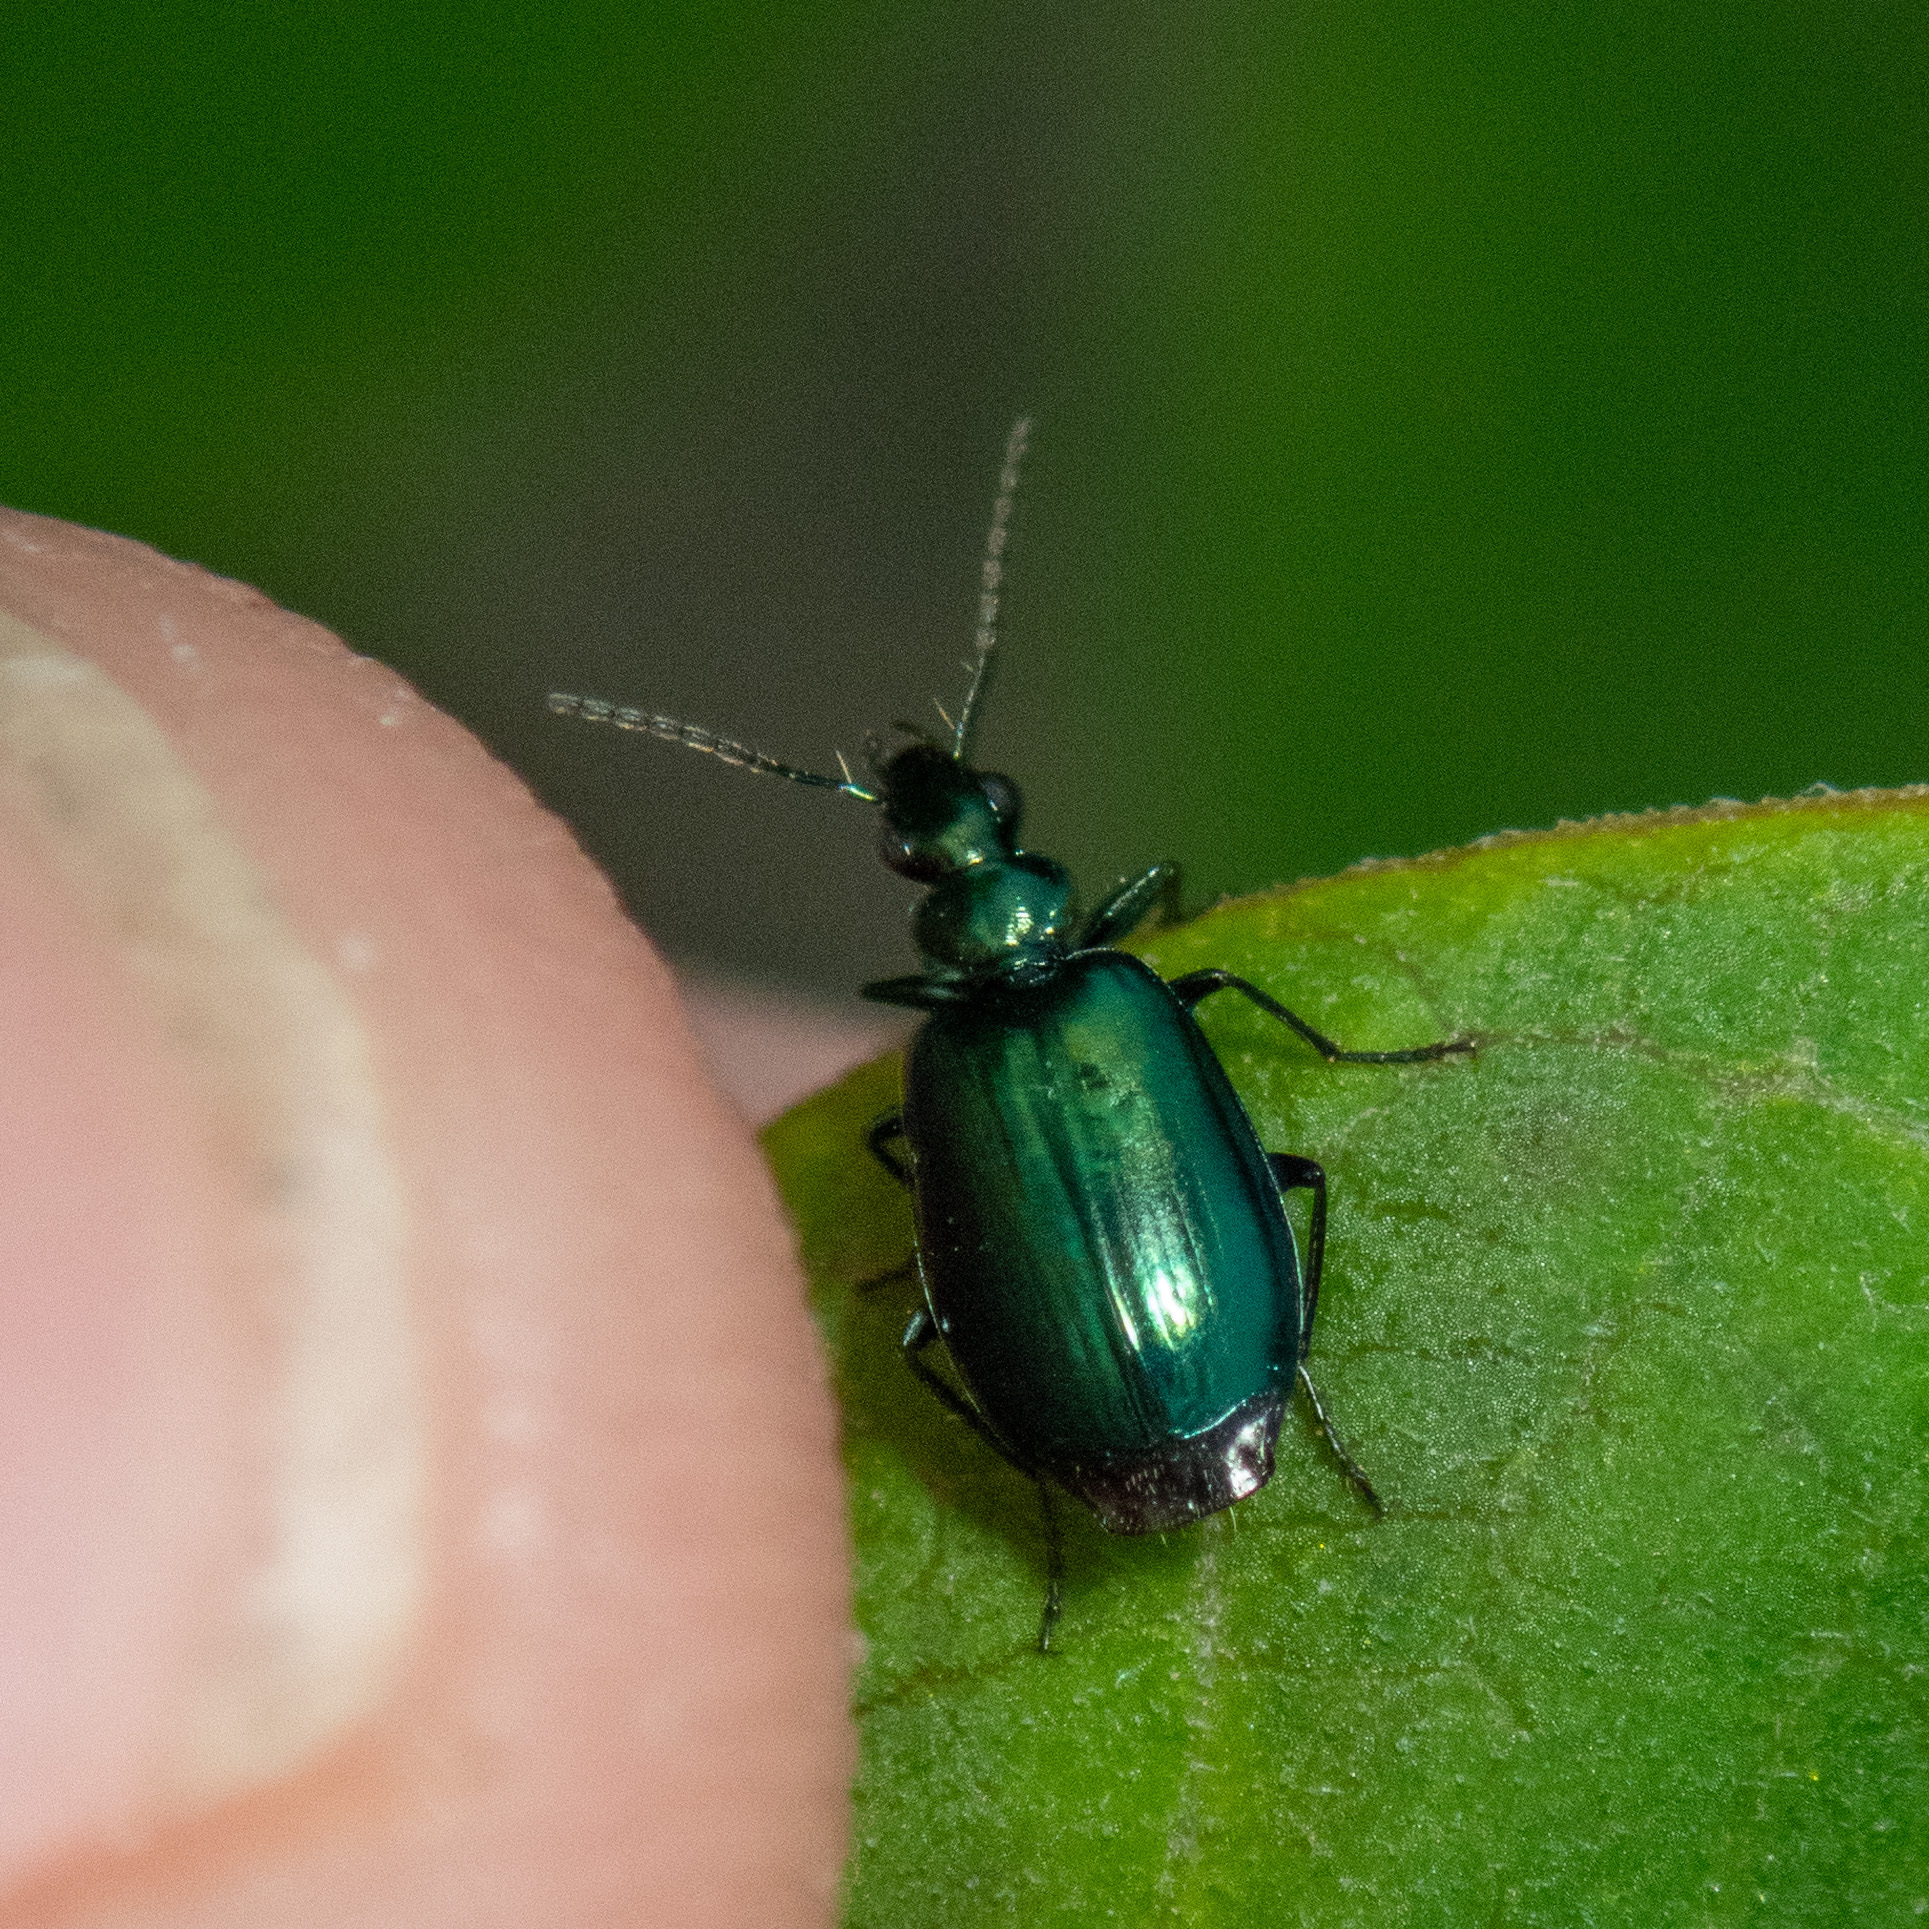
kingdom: Animalia
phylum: Arthropoda
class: Insecta
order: Coleoptera
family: Carabidae
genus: Lebia
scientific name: Lebia viridis
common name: Flower lebia beetle
